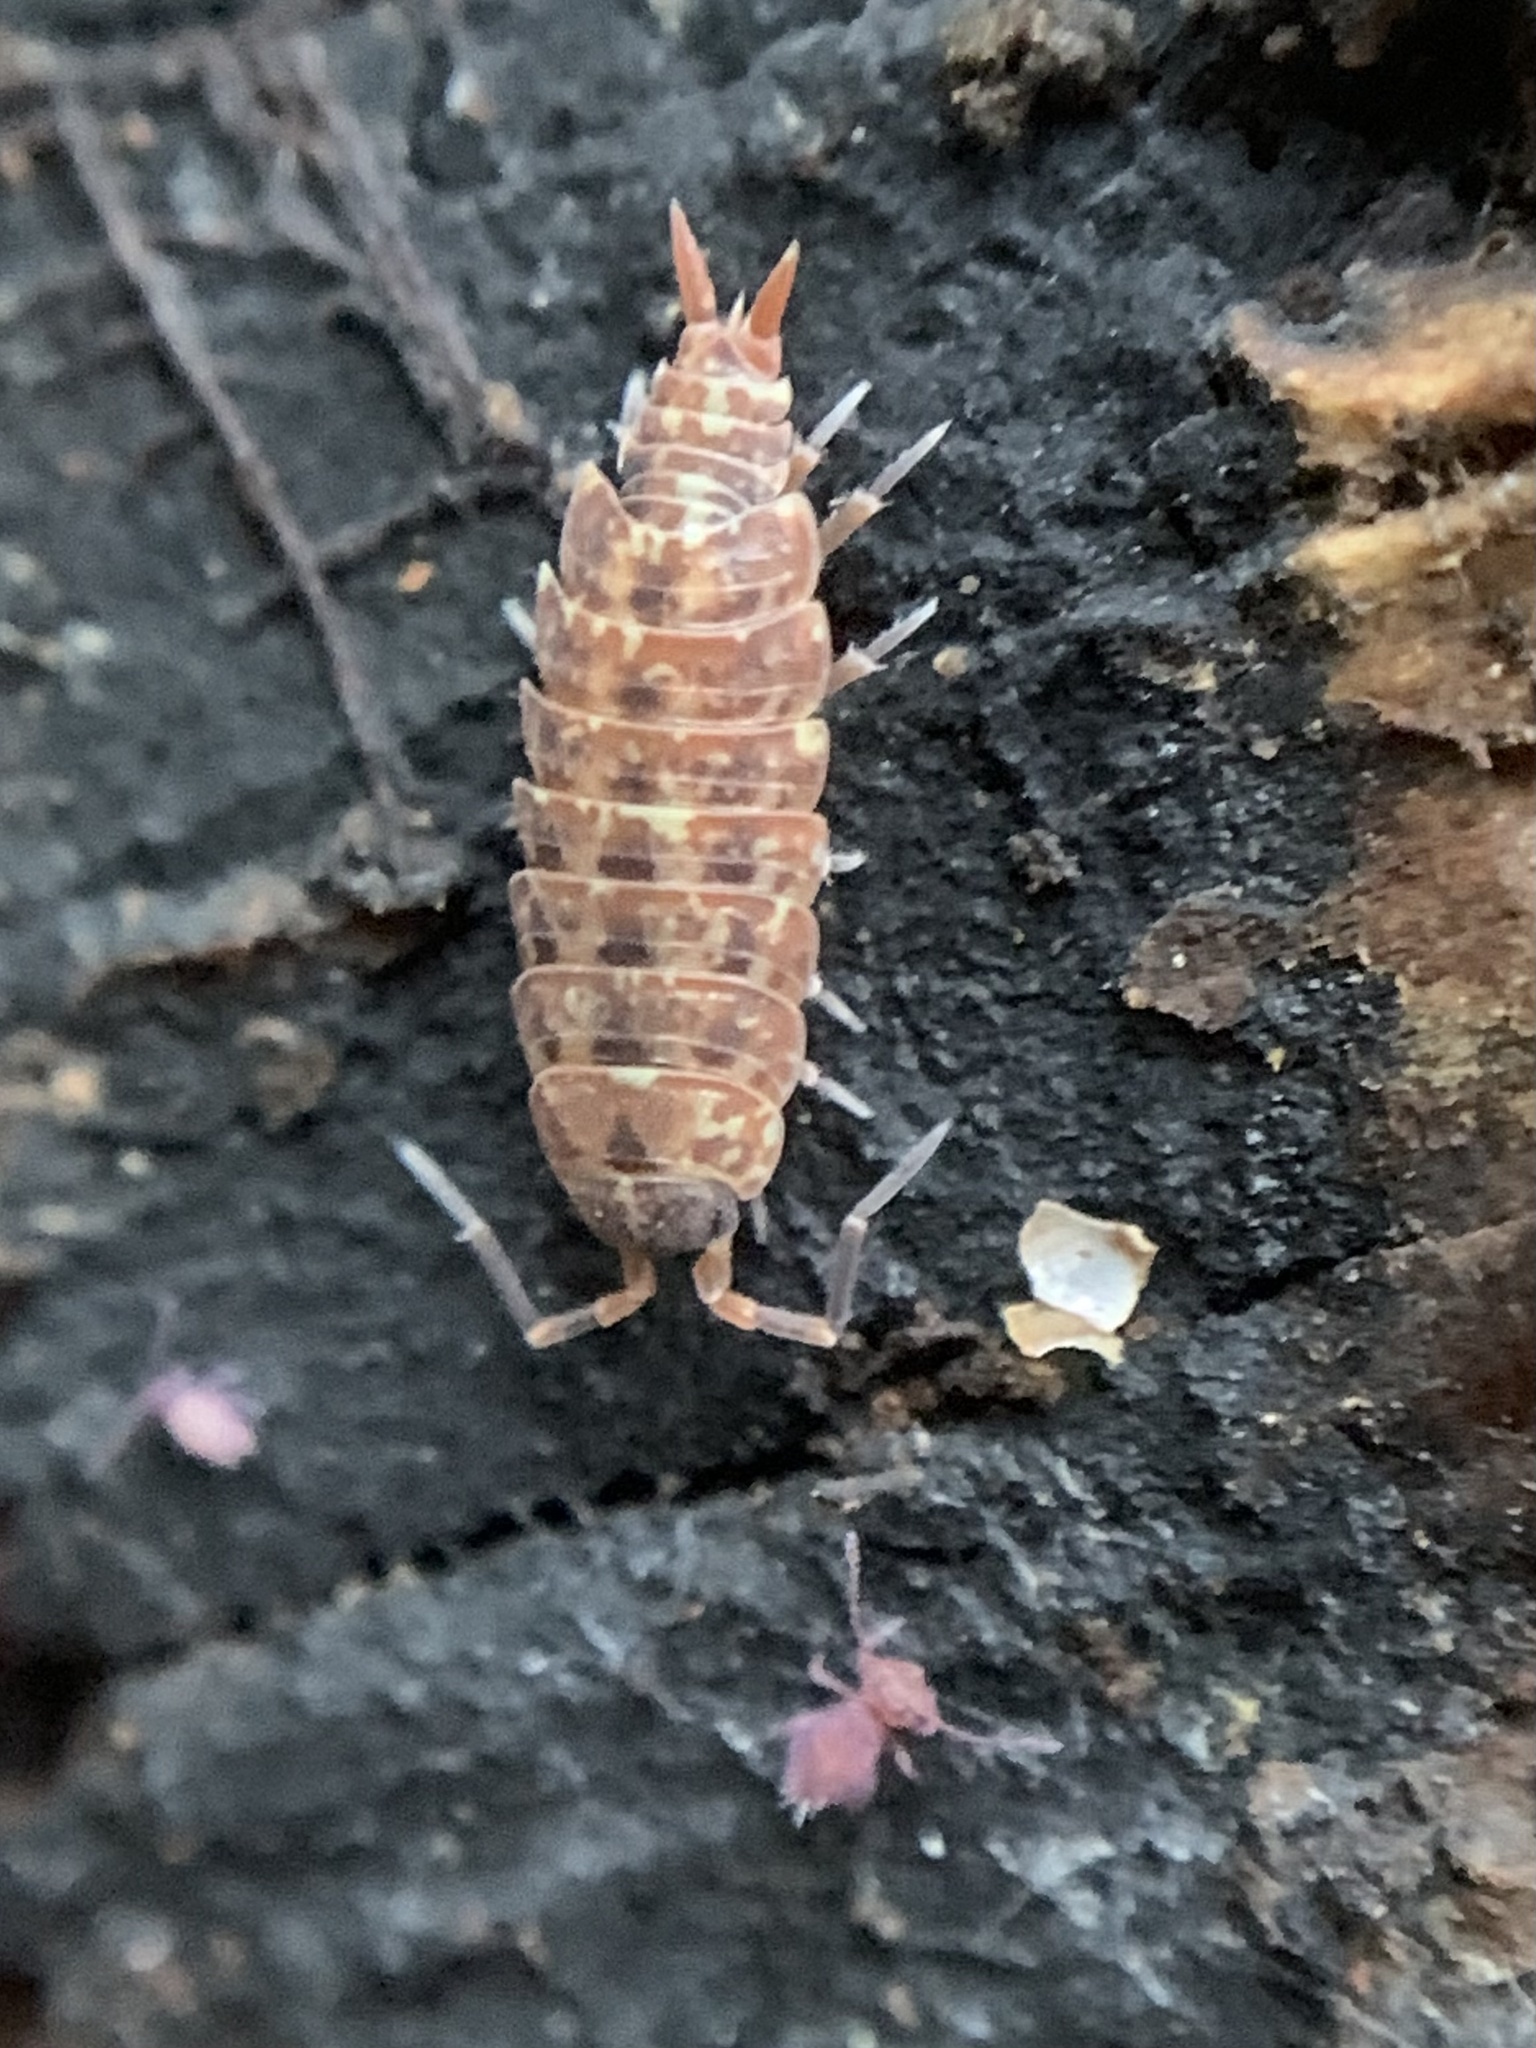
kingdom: Animalia
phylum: Arthropoda
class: Malacostraca
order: Isopoda
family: Porcellionidae
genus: Porcellionides
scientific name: Porcellionides cingendus
